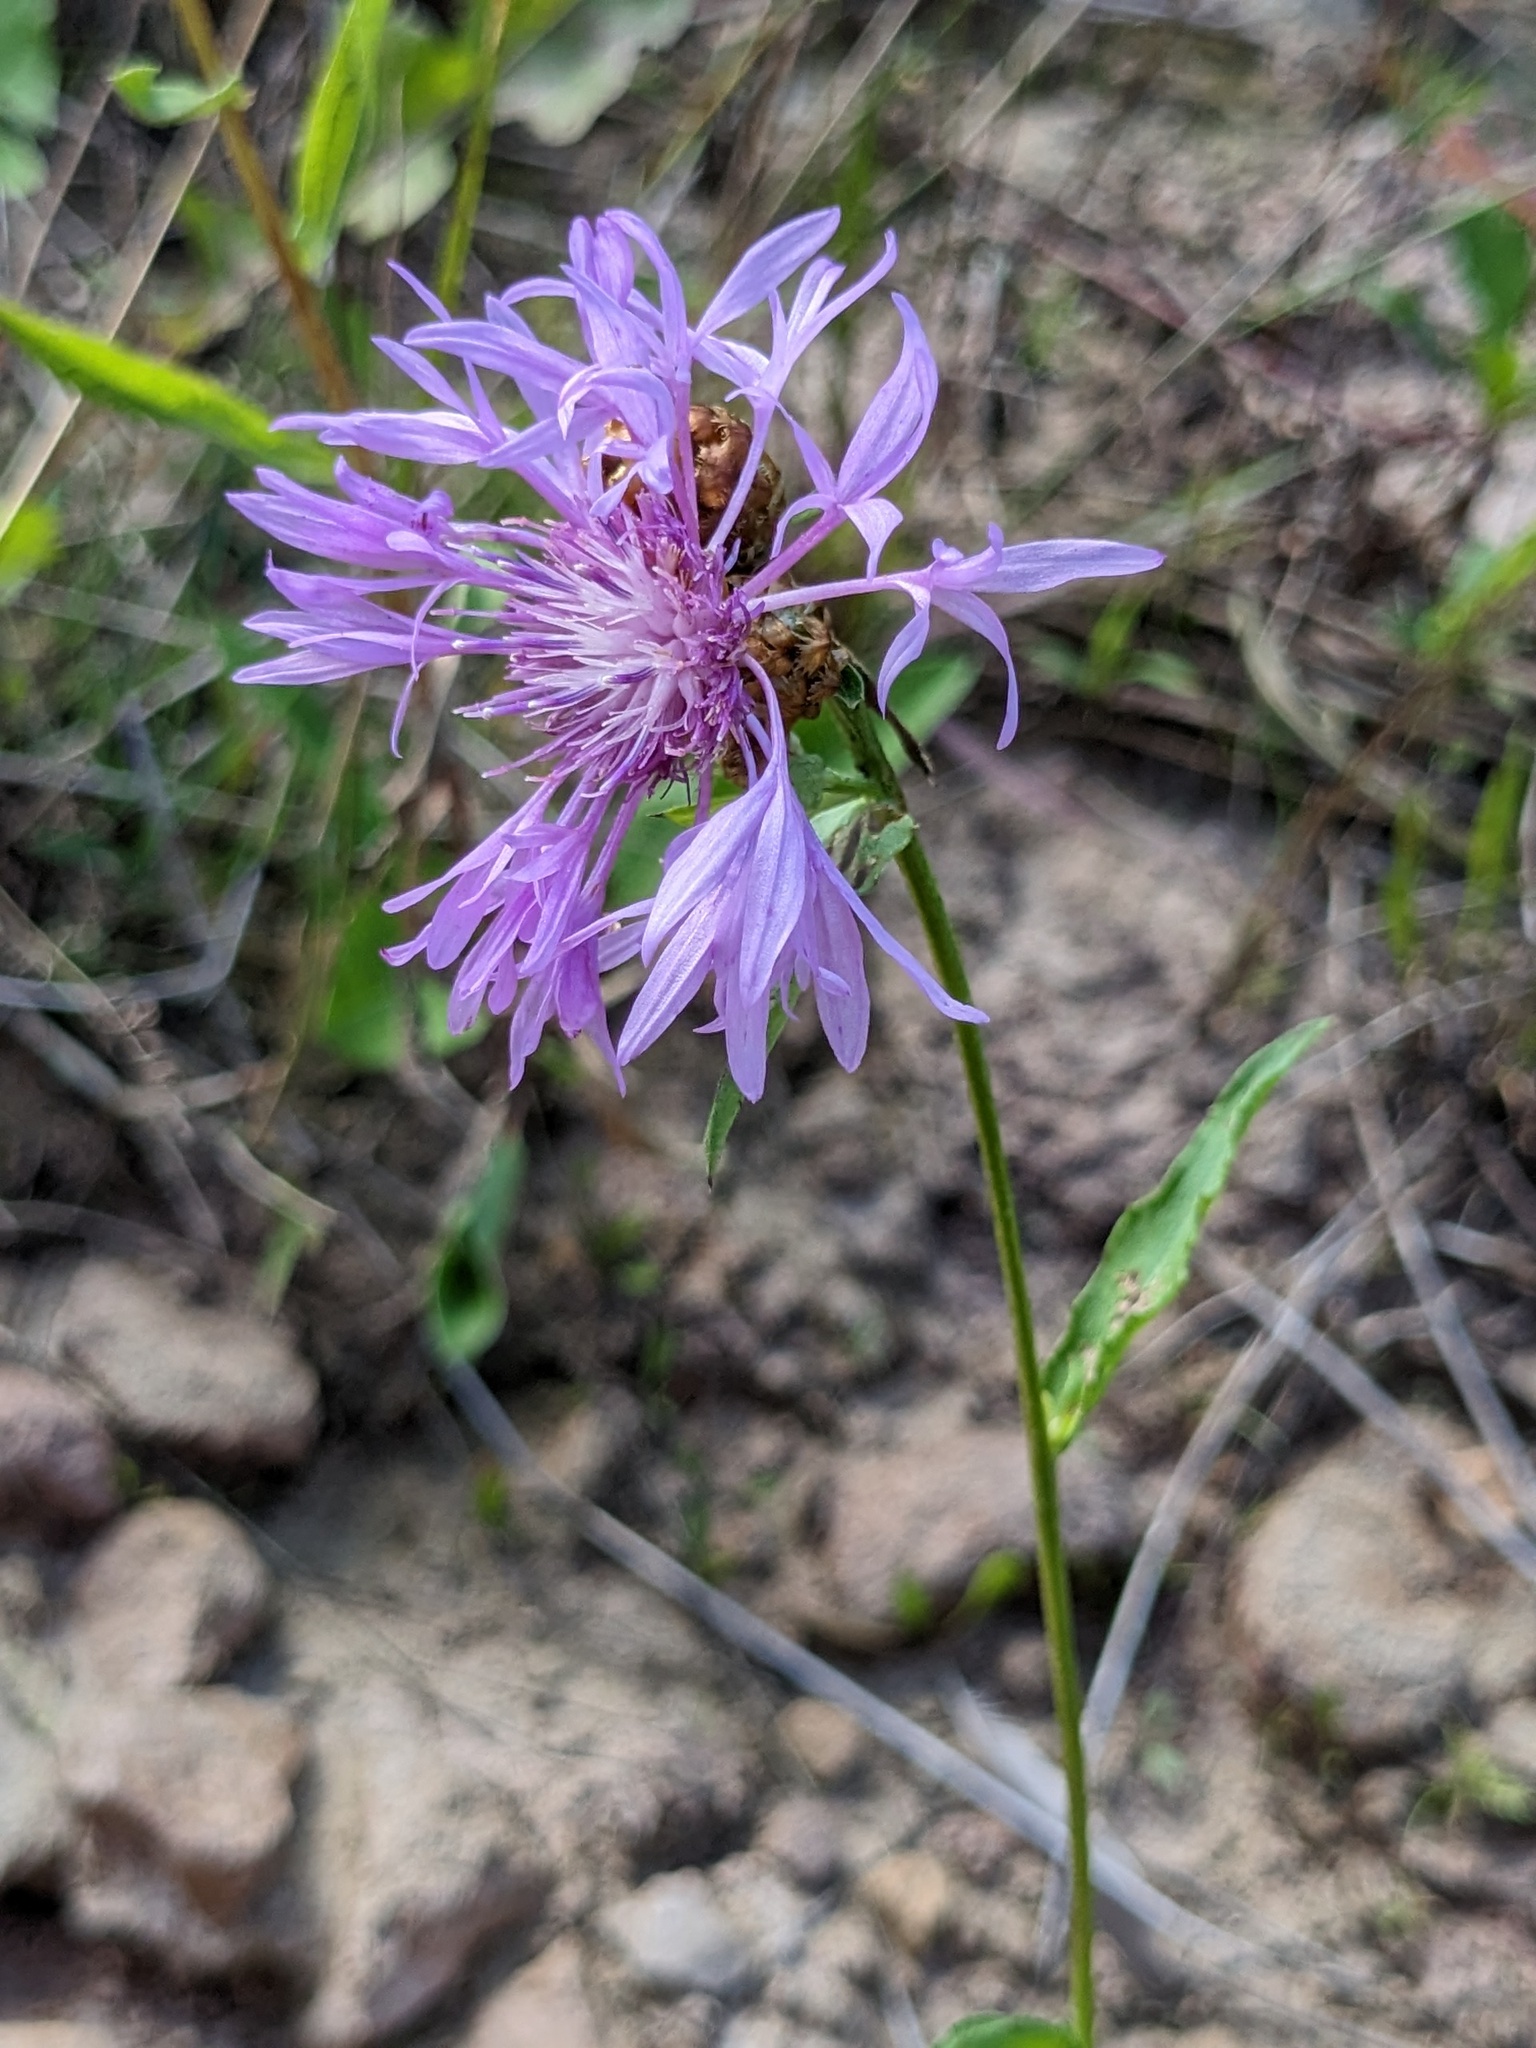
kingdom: Plantae
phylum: Tracheophyta
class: Magnoliopsida
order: Asterales
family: Asteraceae
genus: Centaurea
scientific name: Centaurea jacea
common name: Brown knapweed
